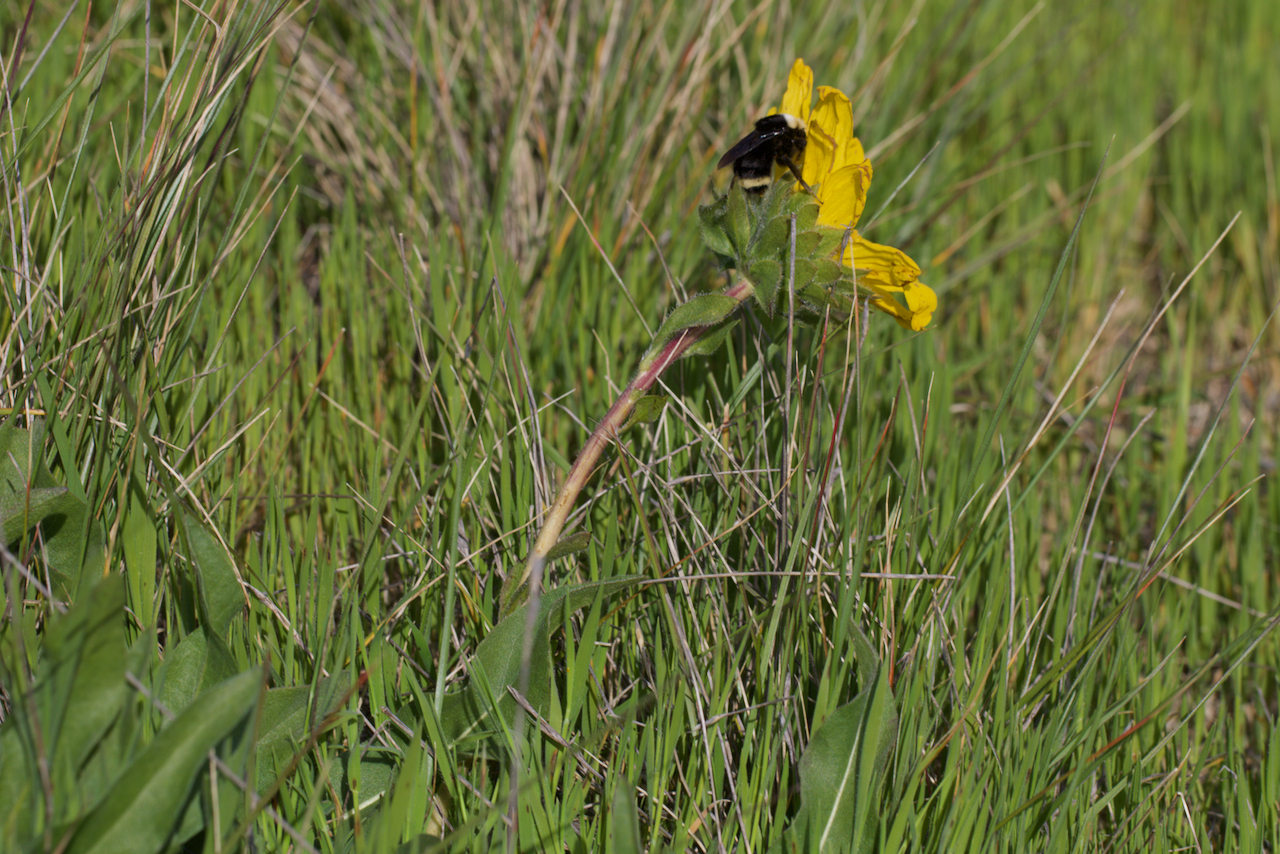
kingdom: Animalia
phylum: Arthropoda
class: Insecta
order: Hymenoptera
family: Apidae
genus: Bombus
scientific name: Bombus vosnesenskii
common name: Vosnesensky bumble bee
